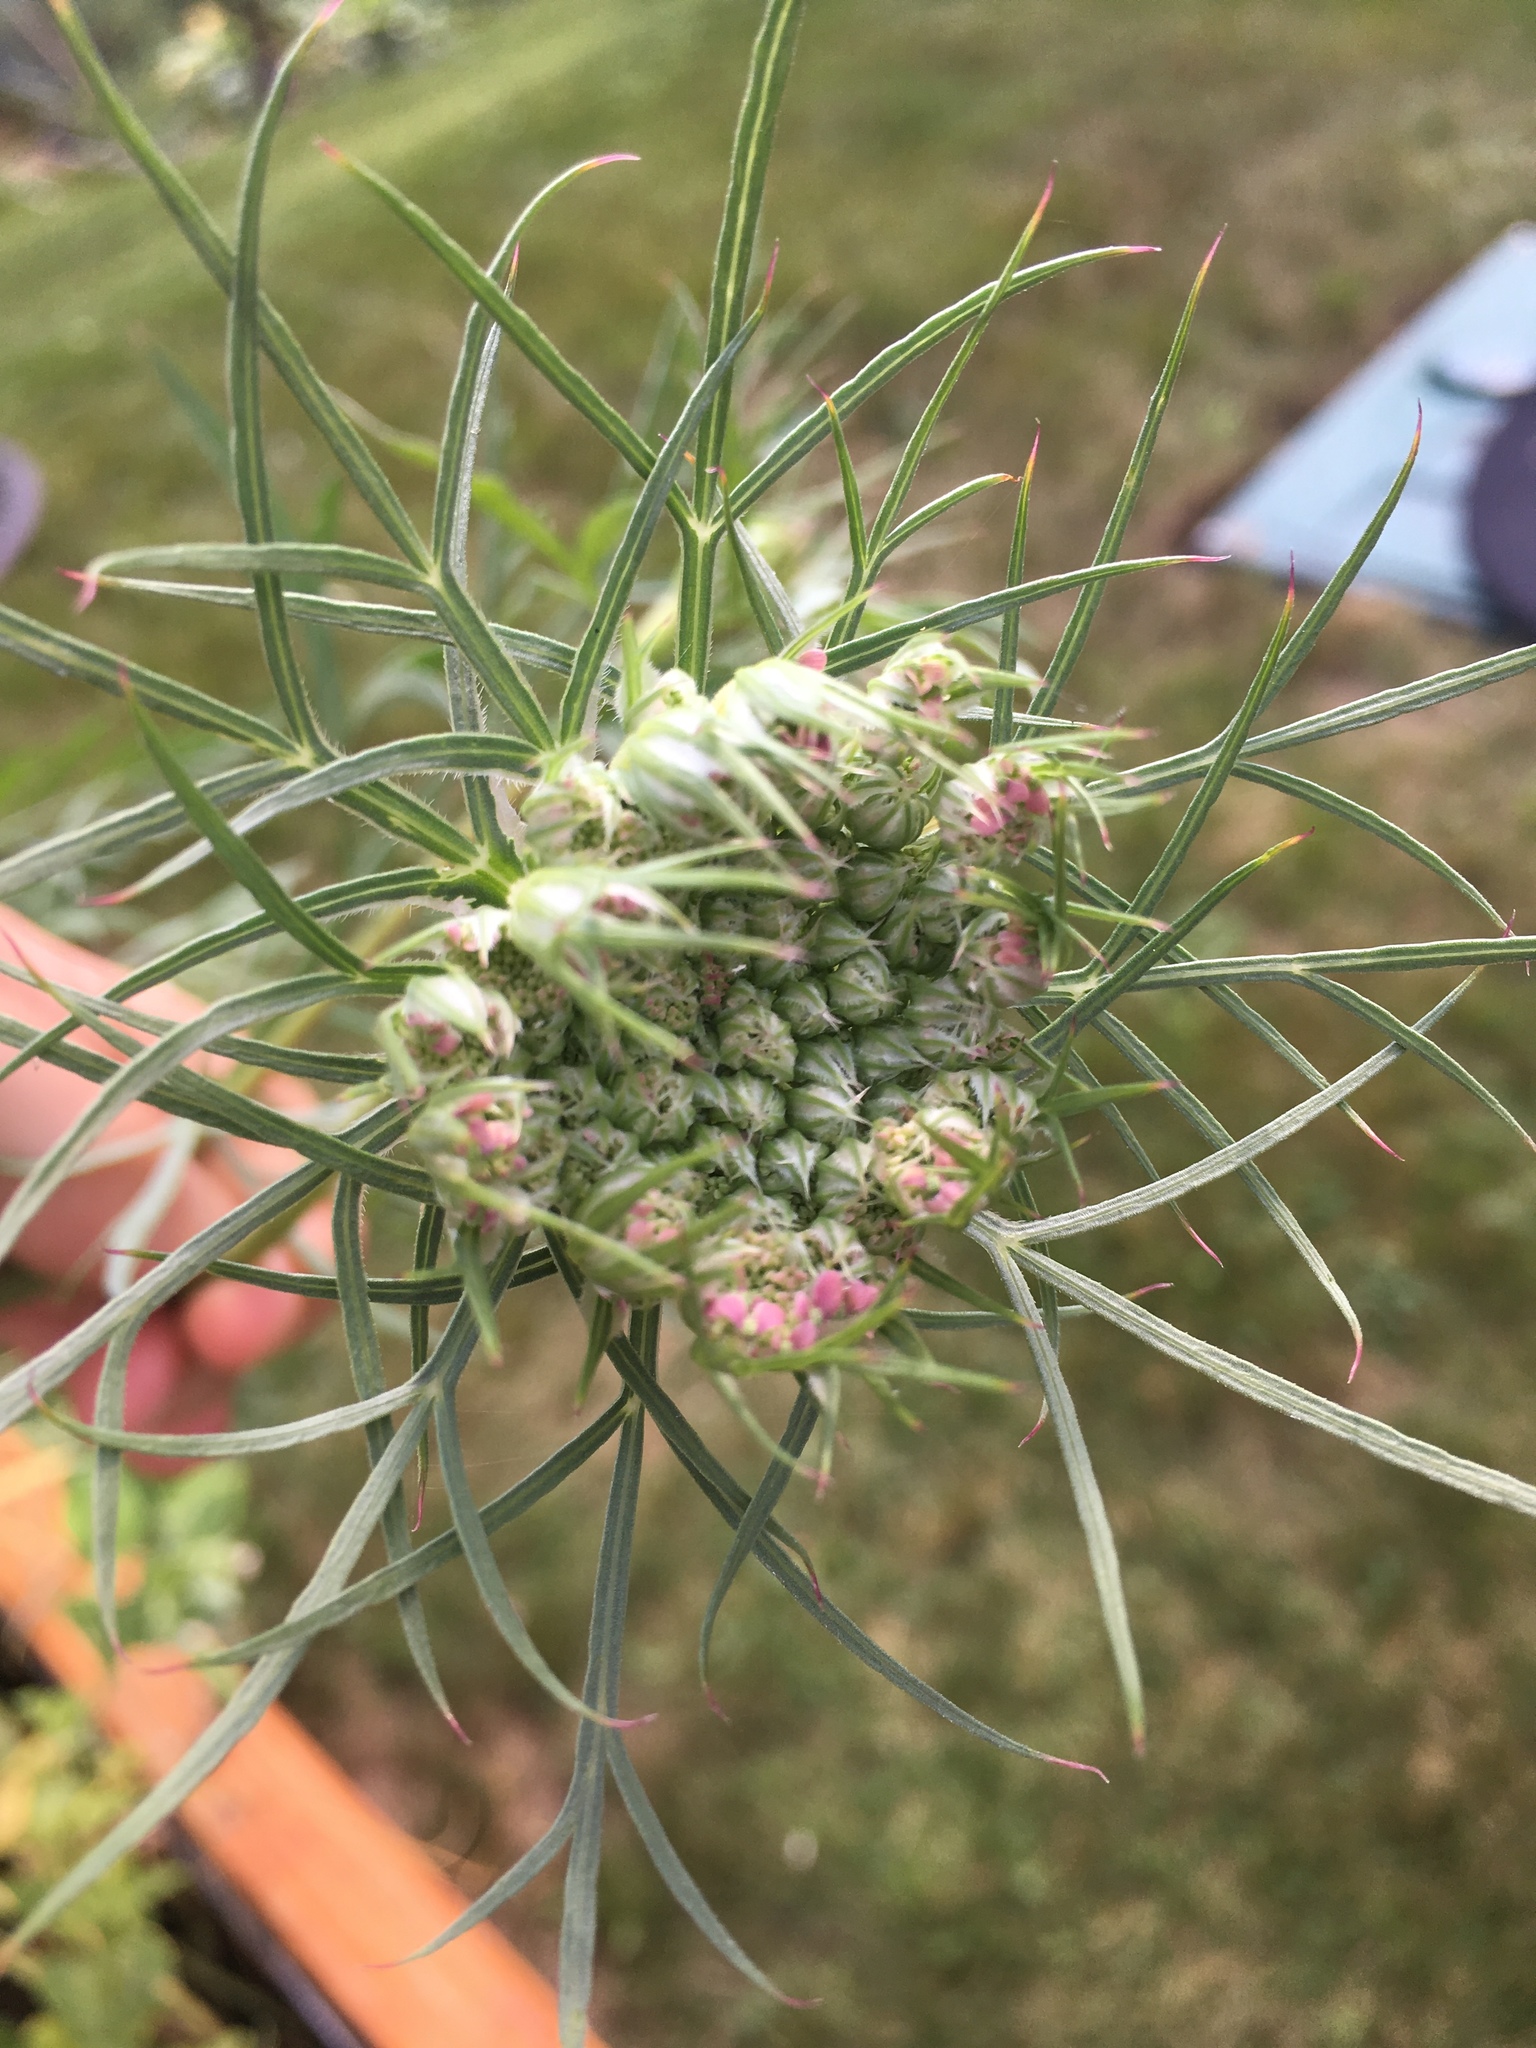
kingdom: Plantae
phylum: Tracheophyta
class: Magnoliopsida
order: Apiales
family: Apiaceae
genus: Daucus
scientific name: Daucus carota
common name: Wild carrot
